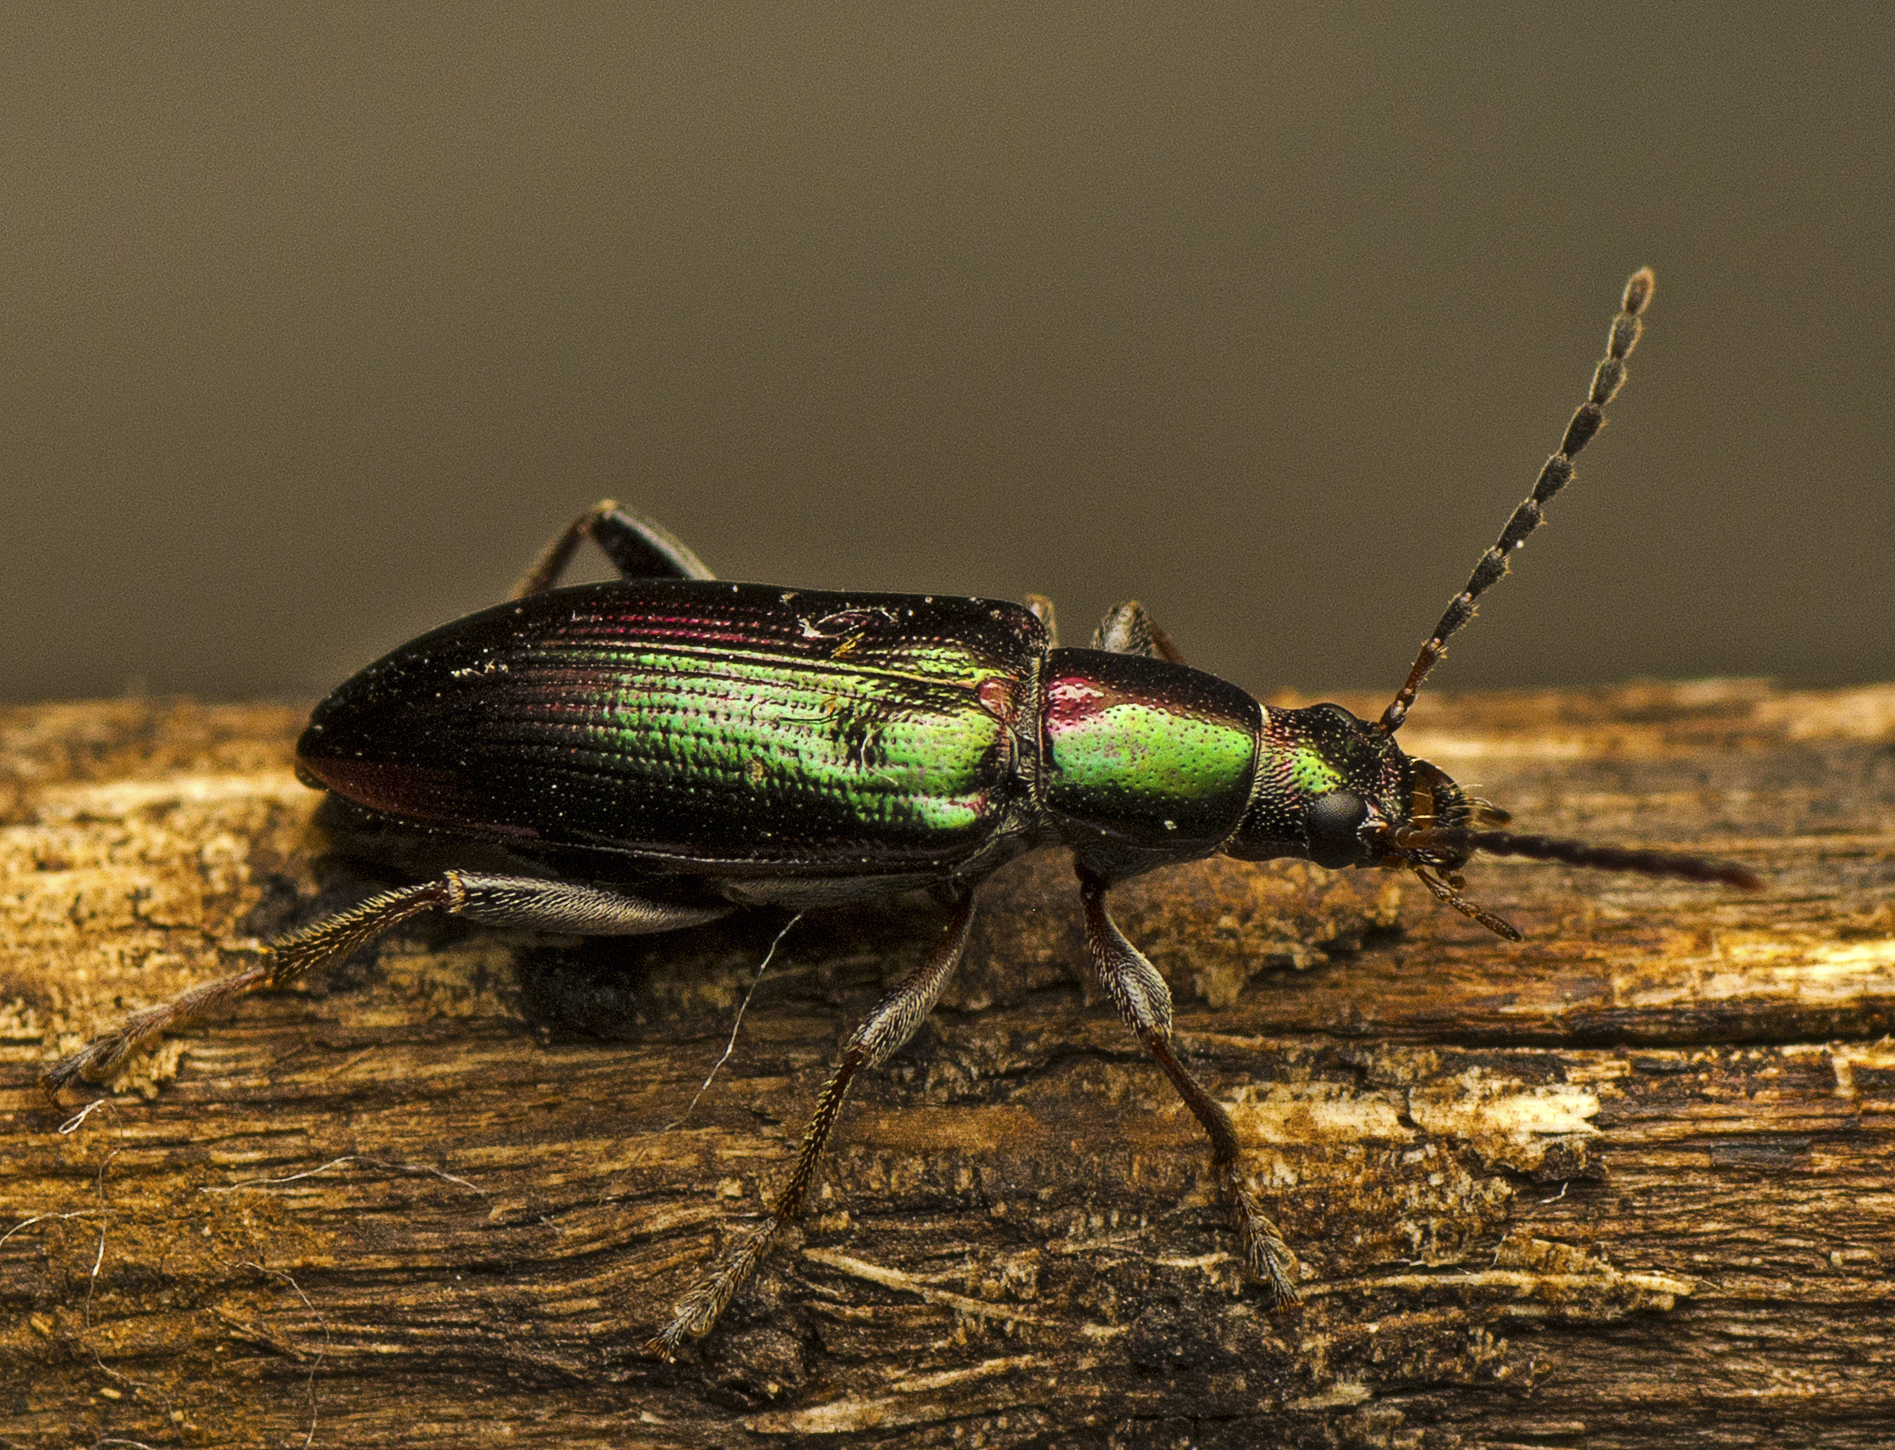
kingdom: Animalia
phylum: Arthropoda
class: Insecta
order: Coleoptera
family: Tenebrionidae
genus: Lepturidea
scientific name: Lepturidea
